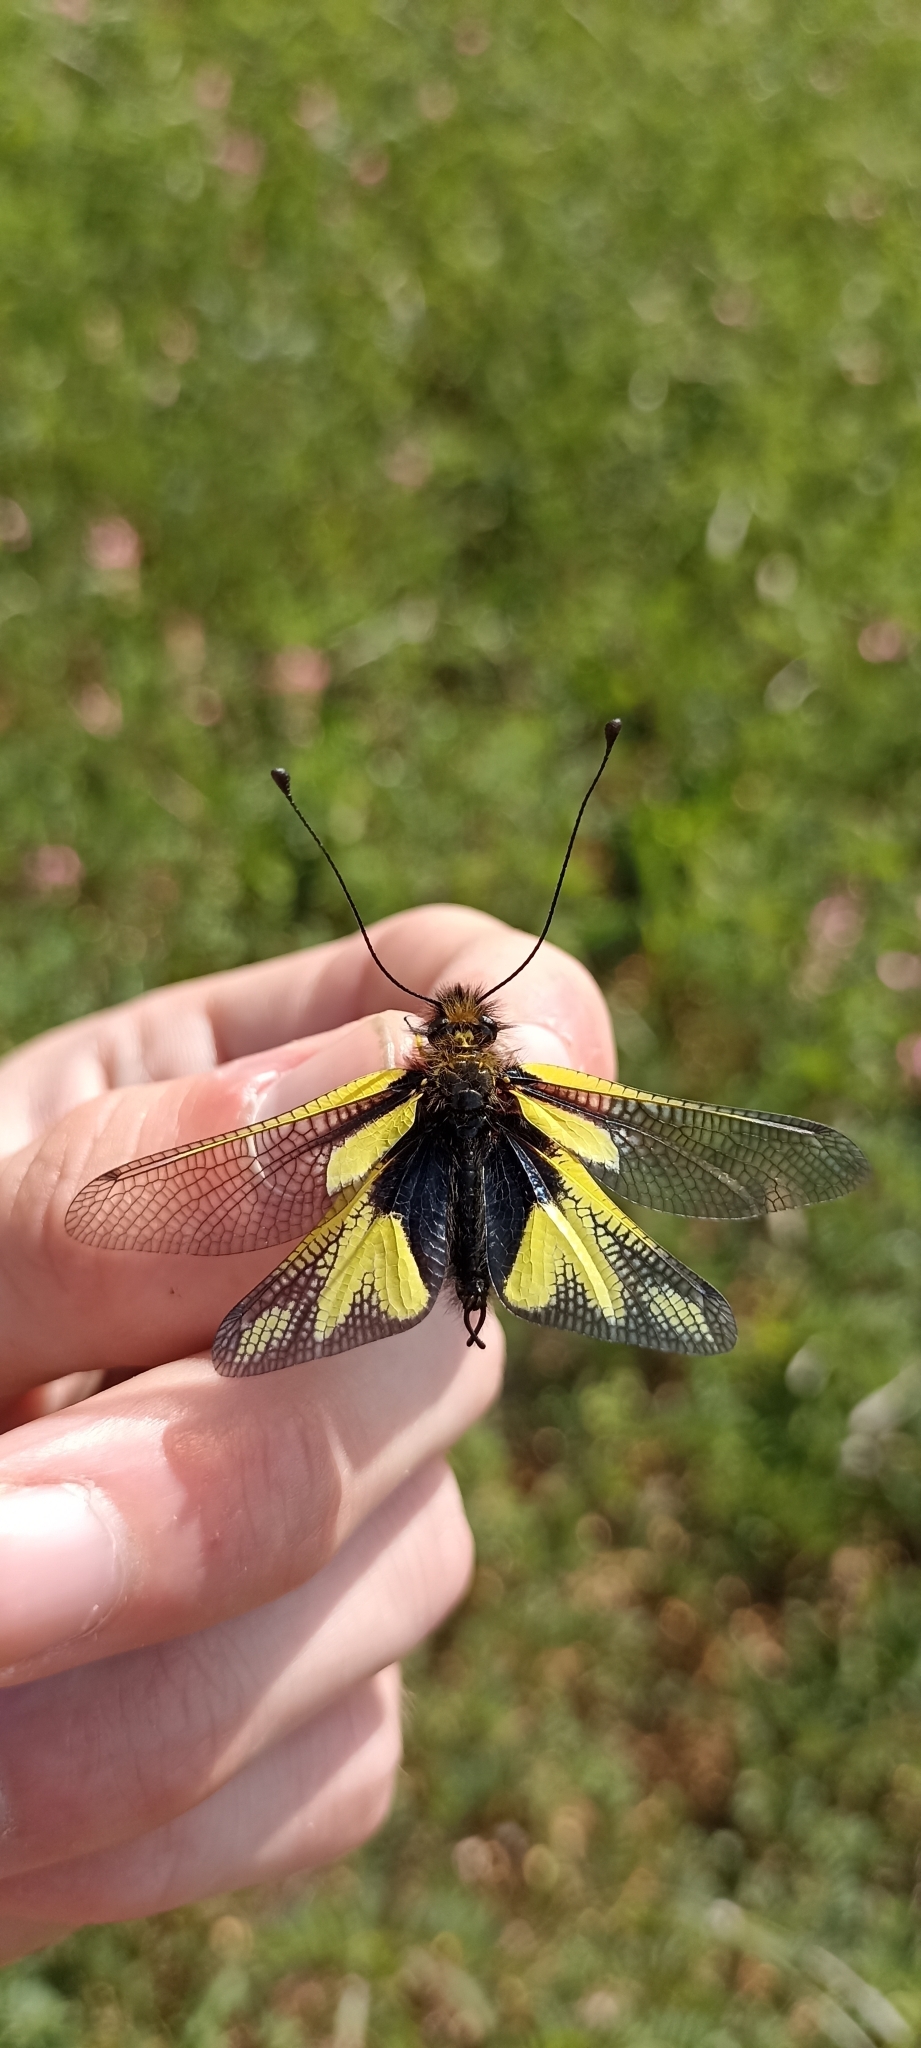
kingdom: Animalia
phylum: Arthropoda
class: Insecta
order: Neuroptera
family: Ascalaphidae
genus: Libelloides
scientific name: Libelloides coccajus
